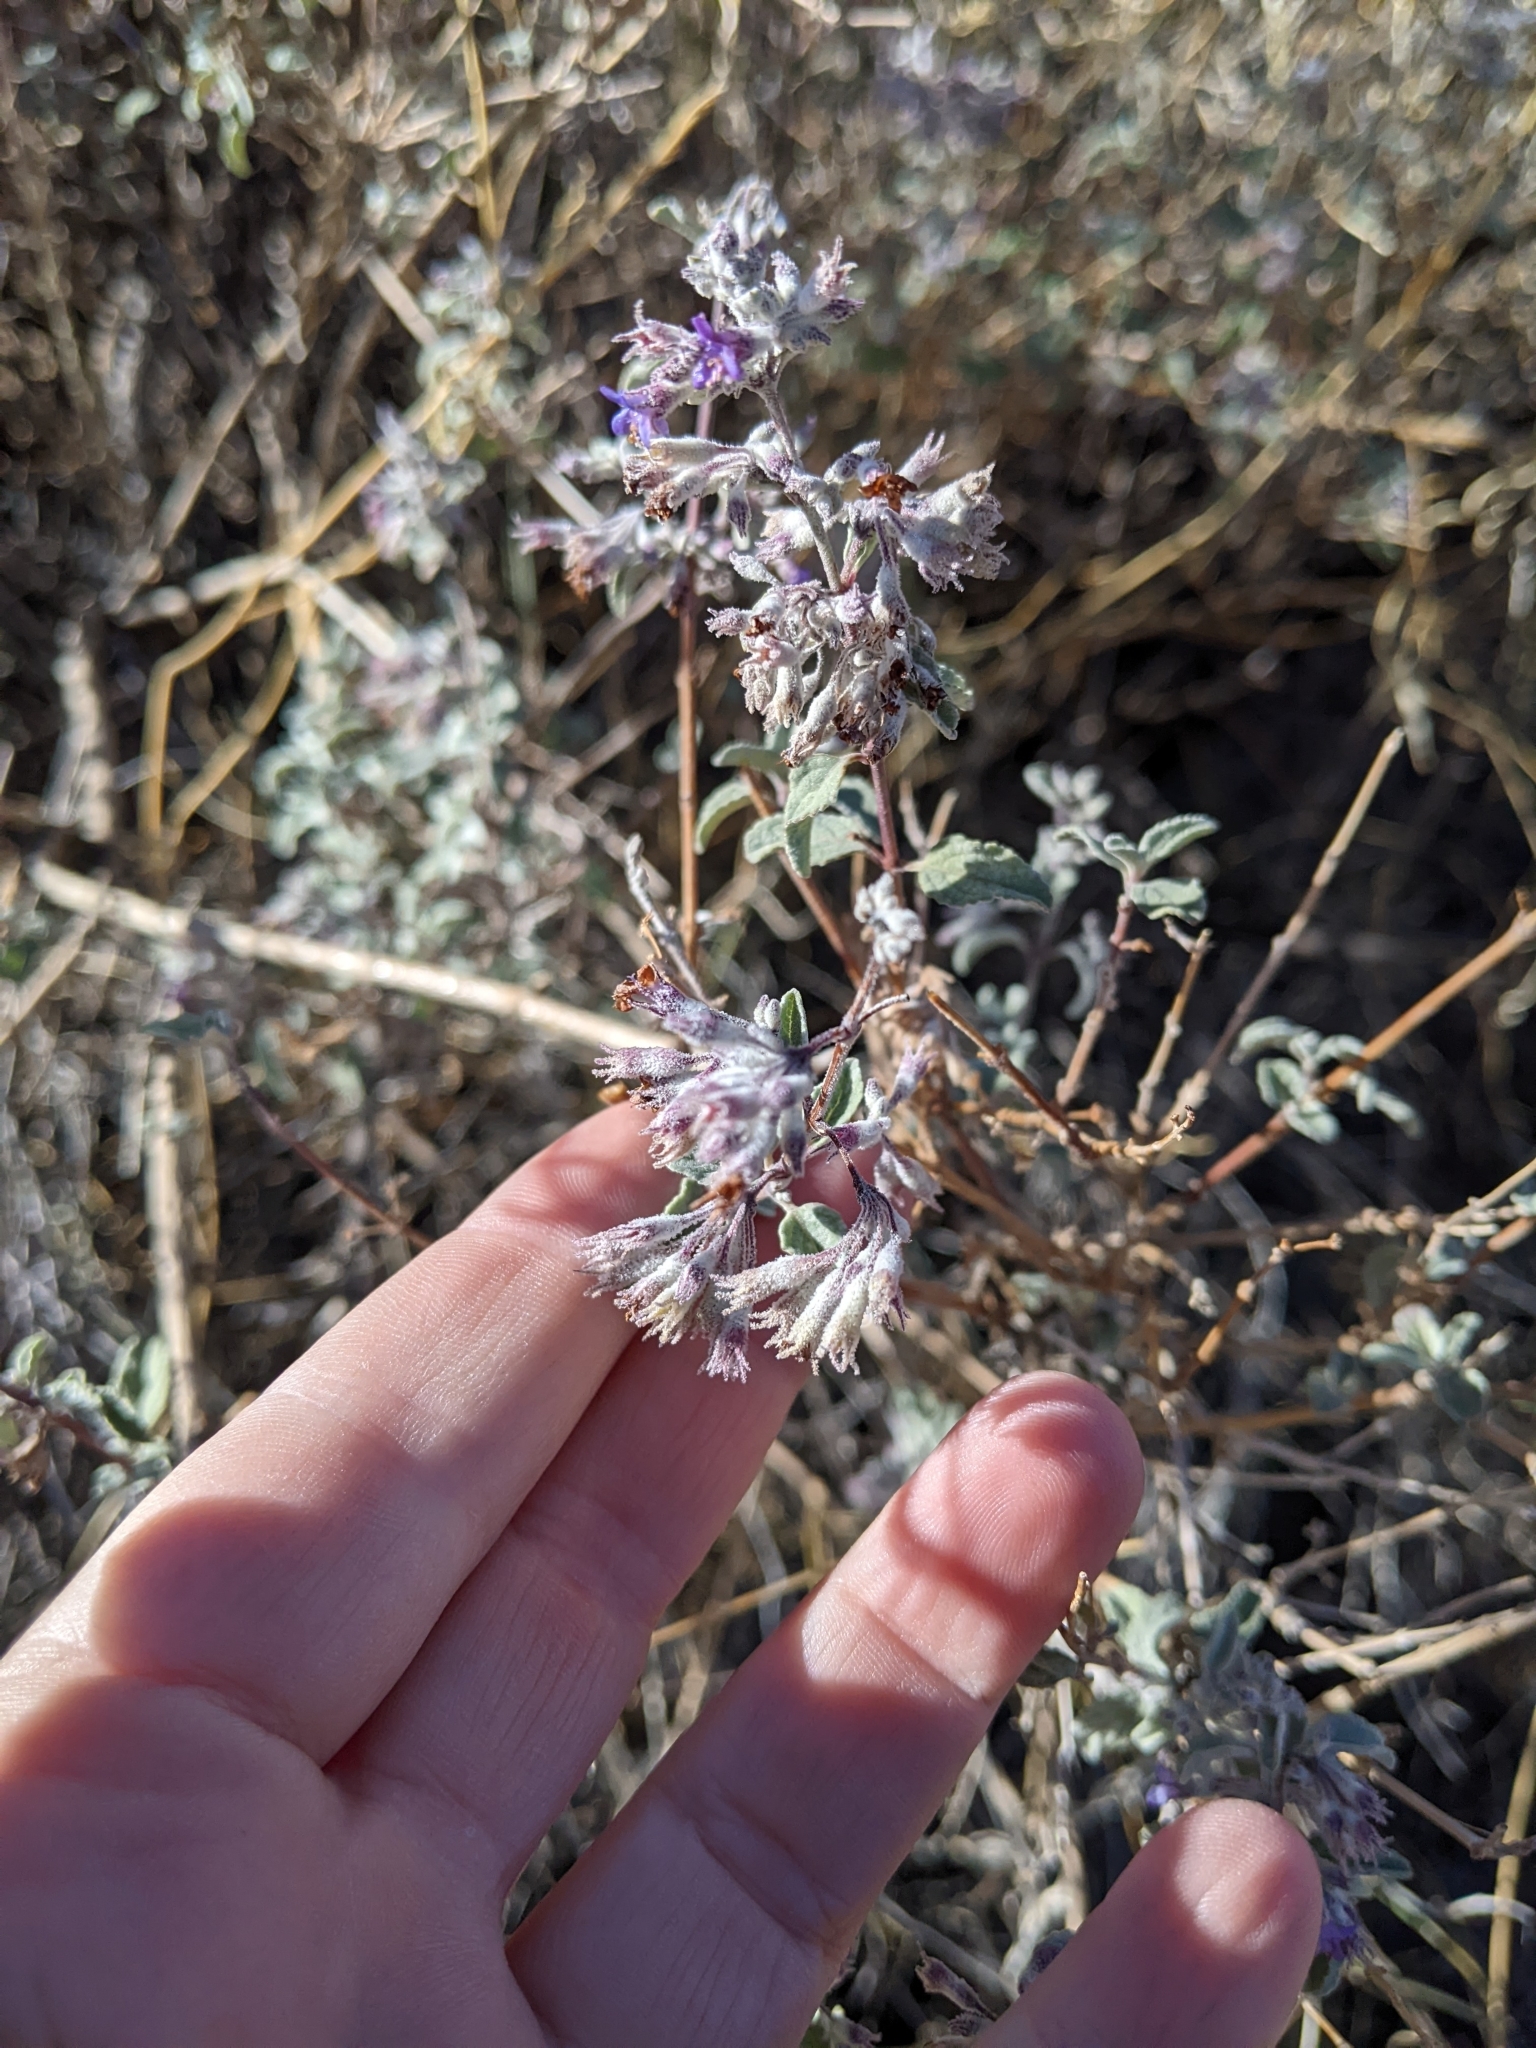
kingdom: Plantae
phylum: Tracheophyta
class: Magnoliopsida
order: Lamiales
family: Lamiaceae
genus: Condea
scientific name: Condea emoryi
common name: Chia
